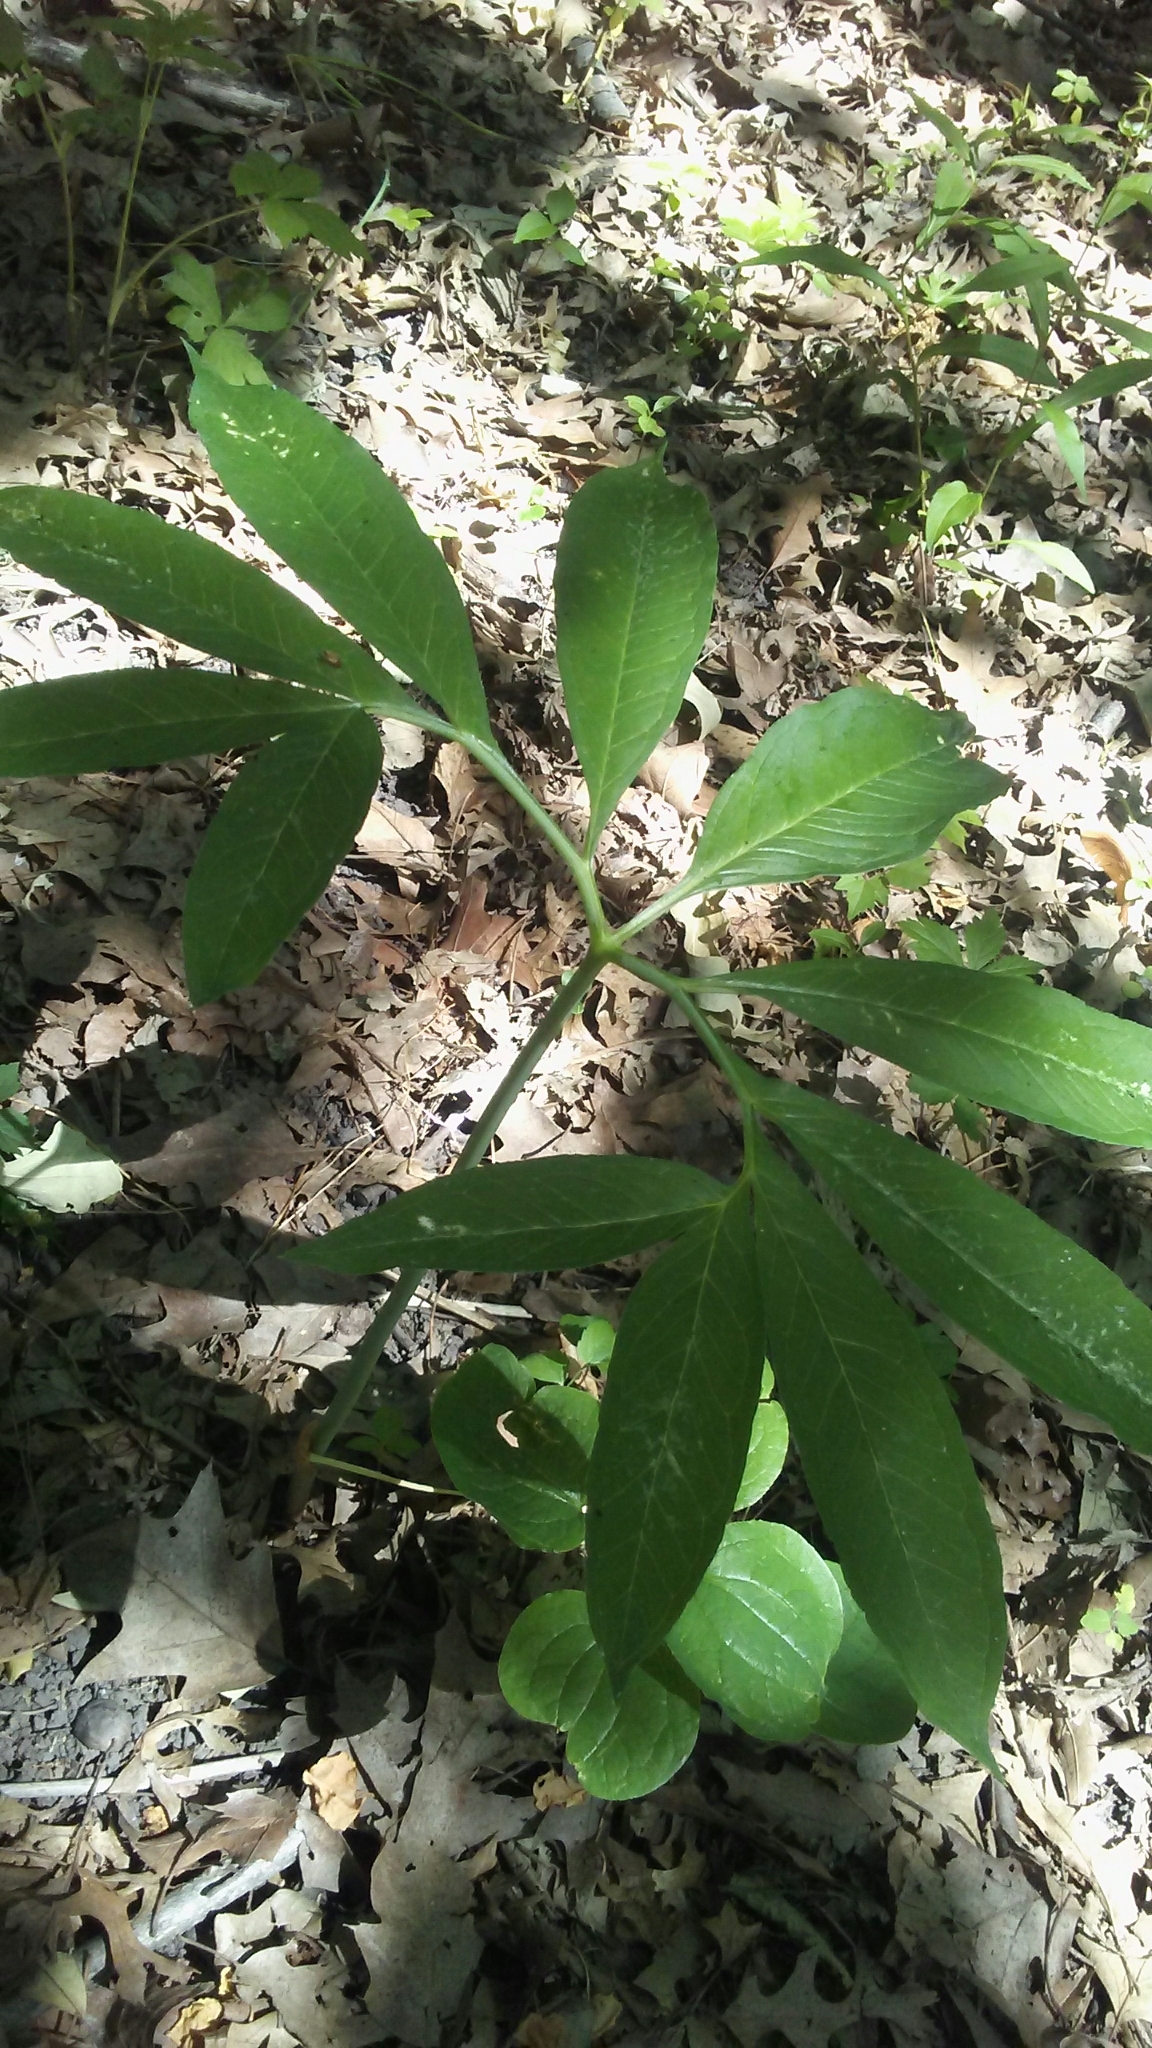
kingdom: Plantae
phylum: Tracheophyta
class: Liliopsida
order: Alismatales
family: Araceae
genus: Arisaema
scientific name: Arisaema dracontium
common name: Dragon-arum
